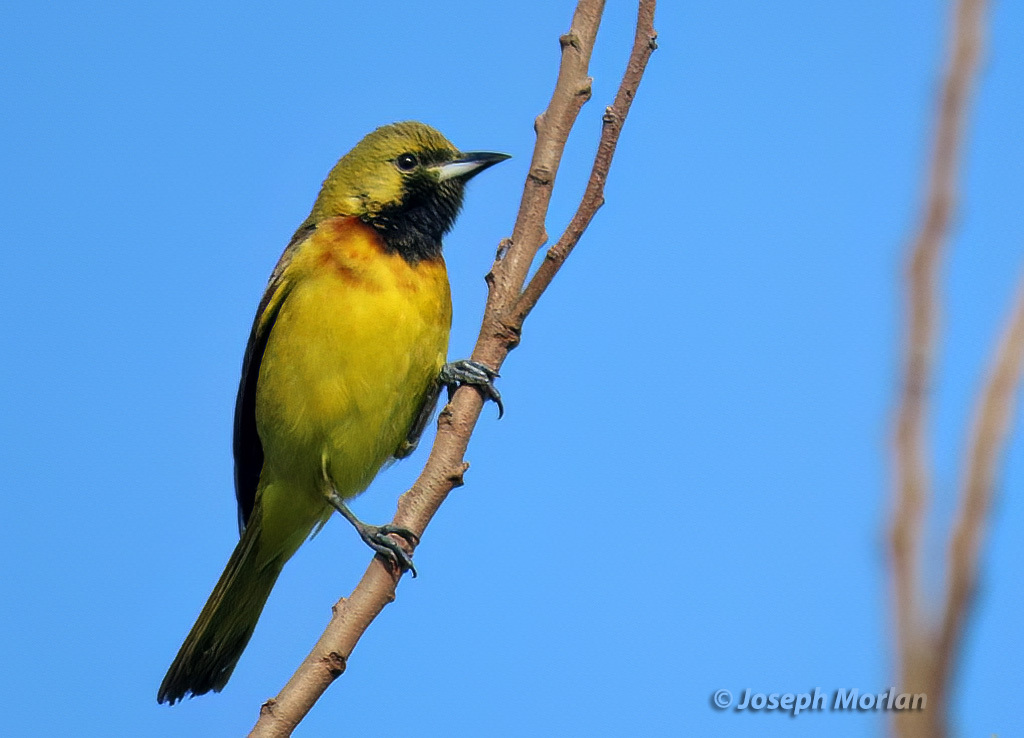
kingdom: Animalia
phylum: Chordata
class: Aves
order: Passeriformes
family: Icteridae
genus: Icterus
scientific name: Icterus spurius
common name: Orchard oriole
